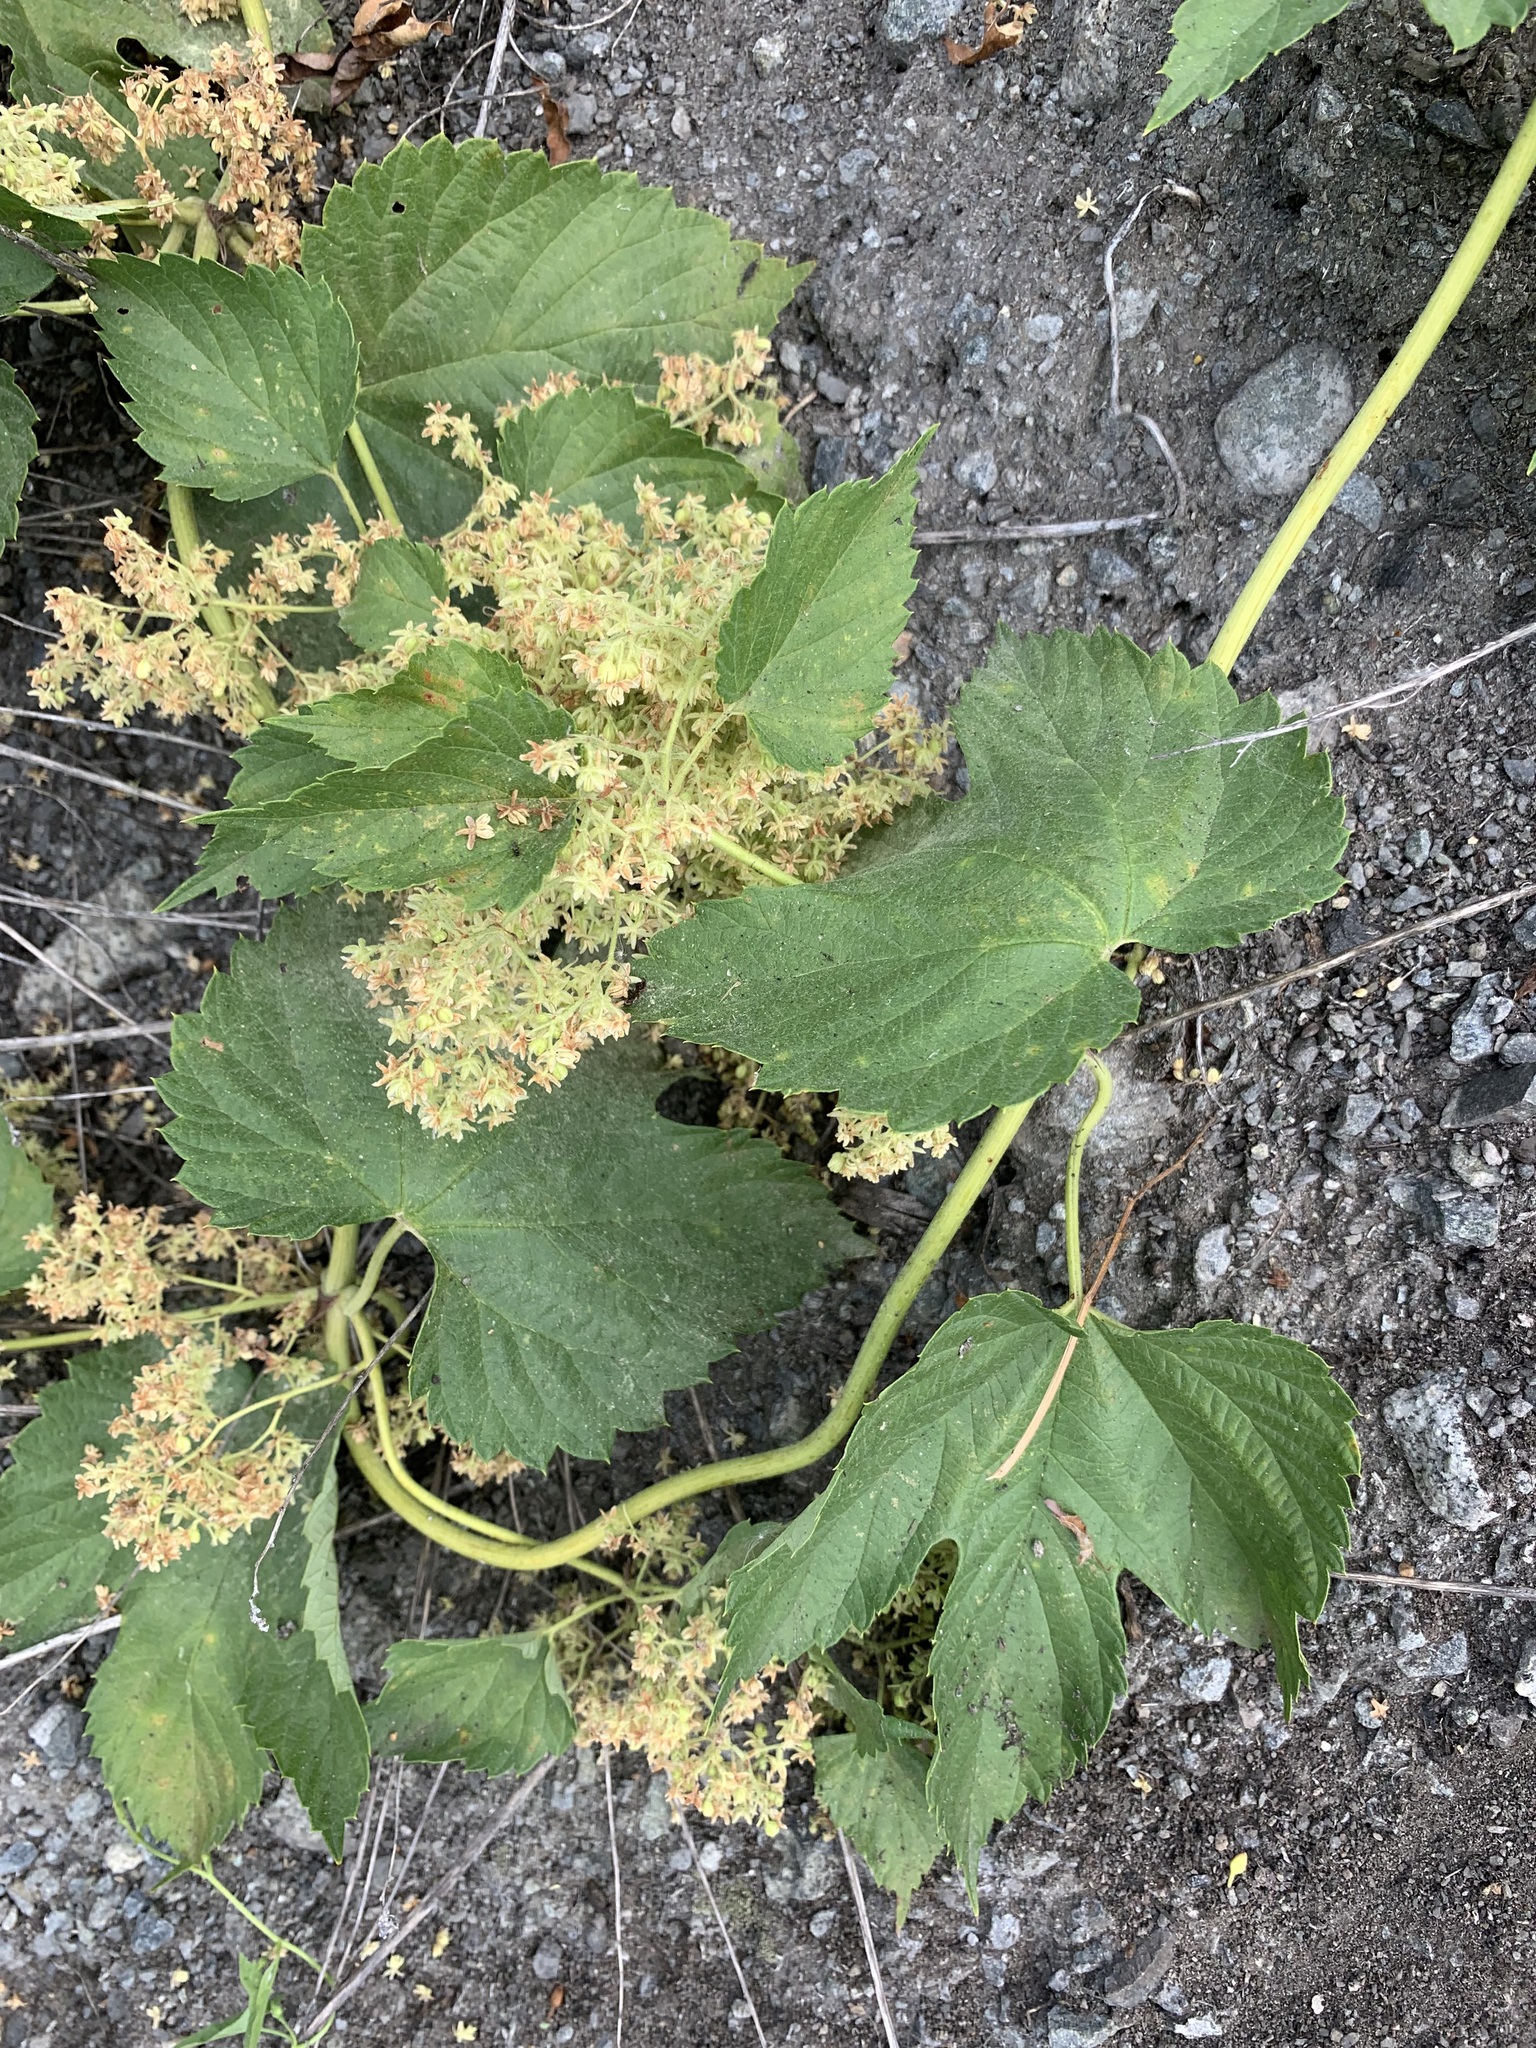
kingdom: Plantae
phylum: Tracheophyta
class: Magnoliopsida
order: Rosales
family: Cannabaceae
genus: Humulus
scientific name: Humulus lupulus
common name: Hop
